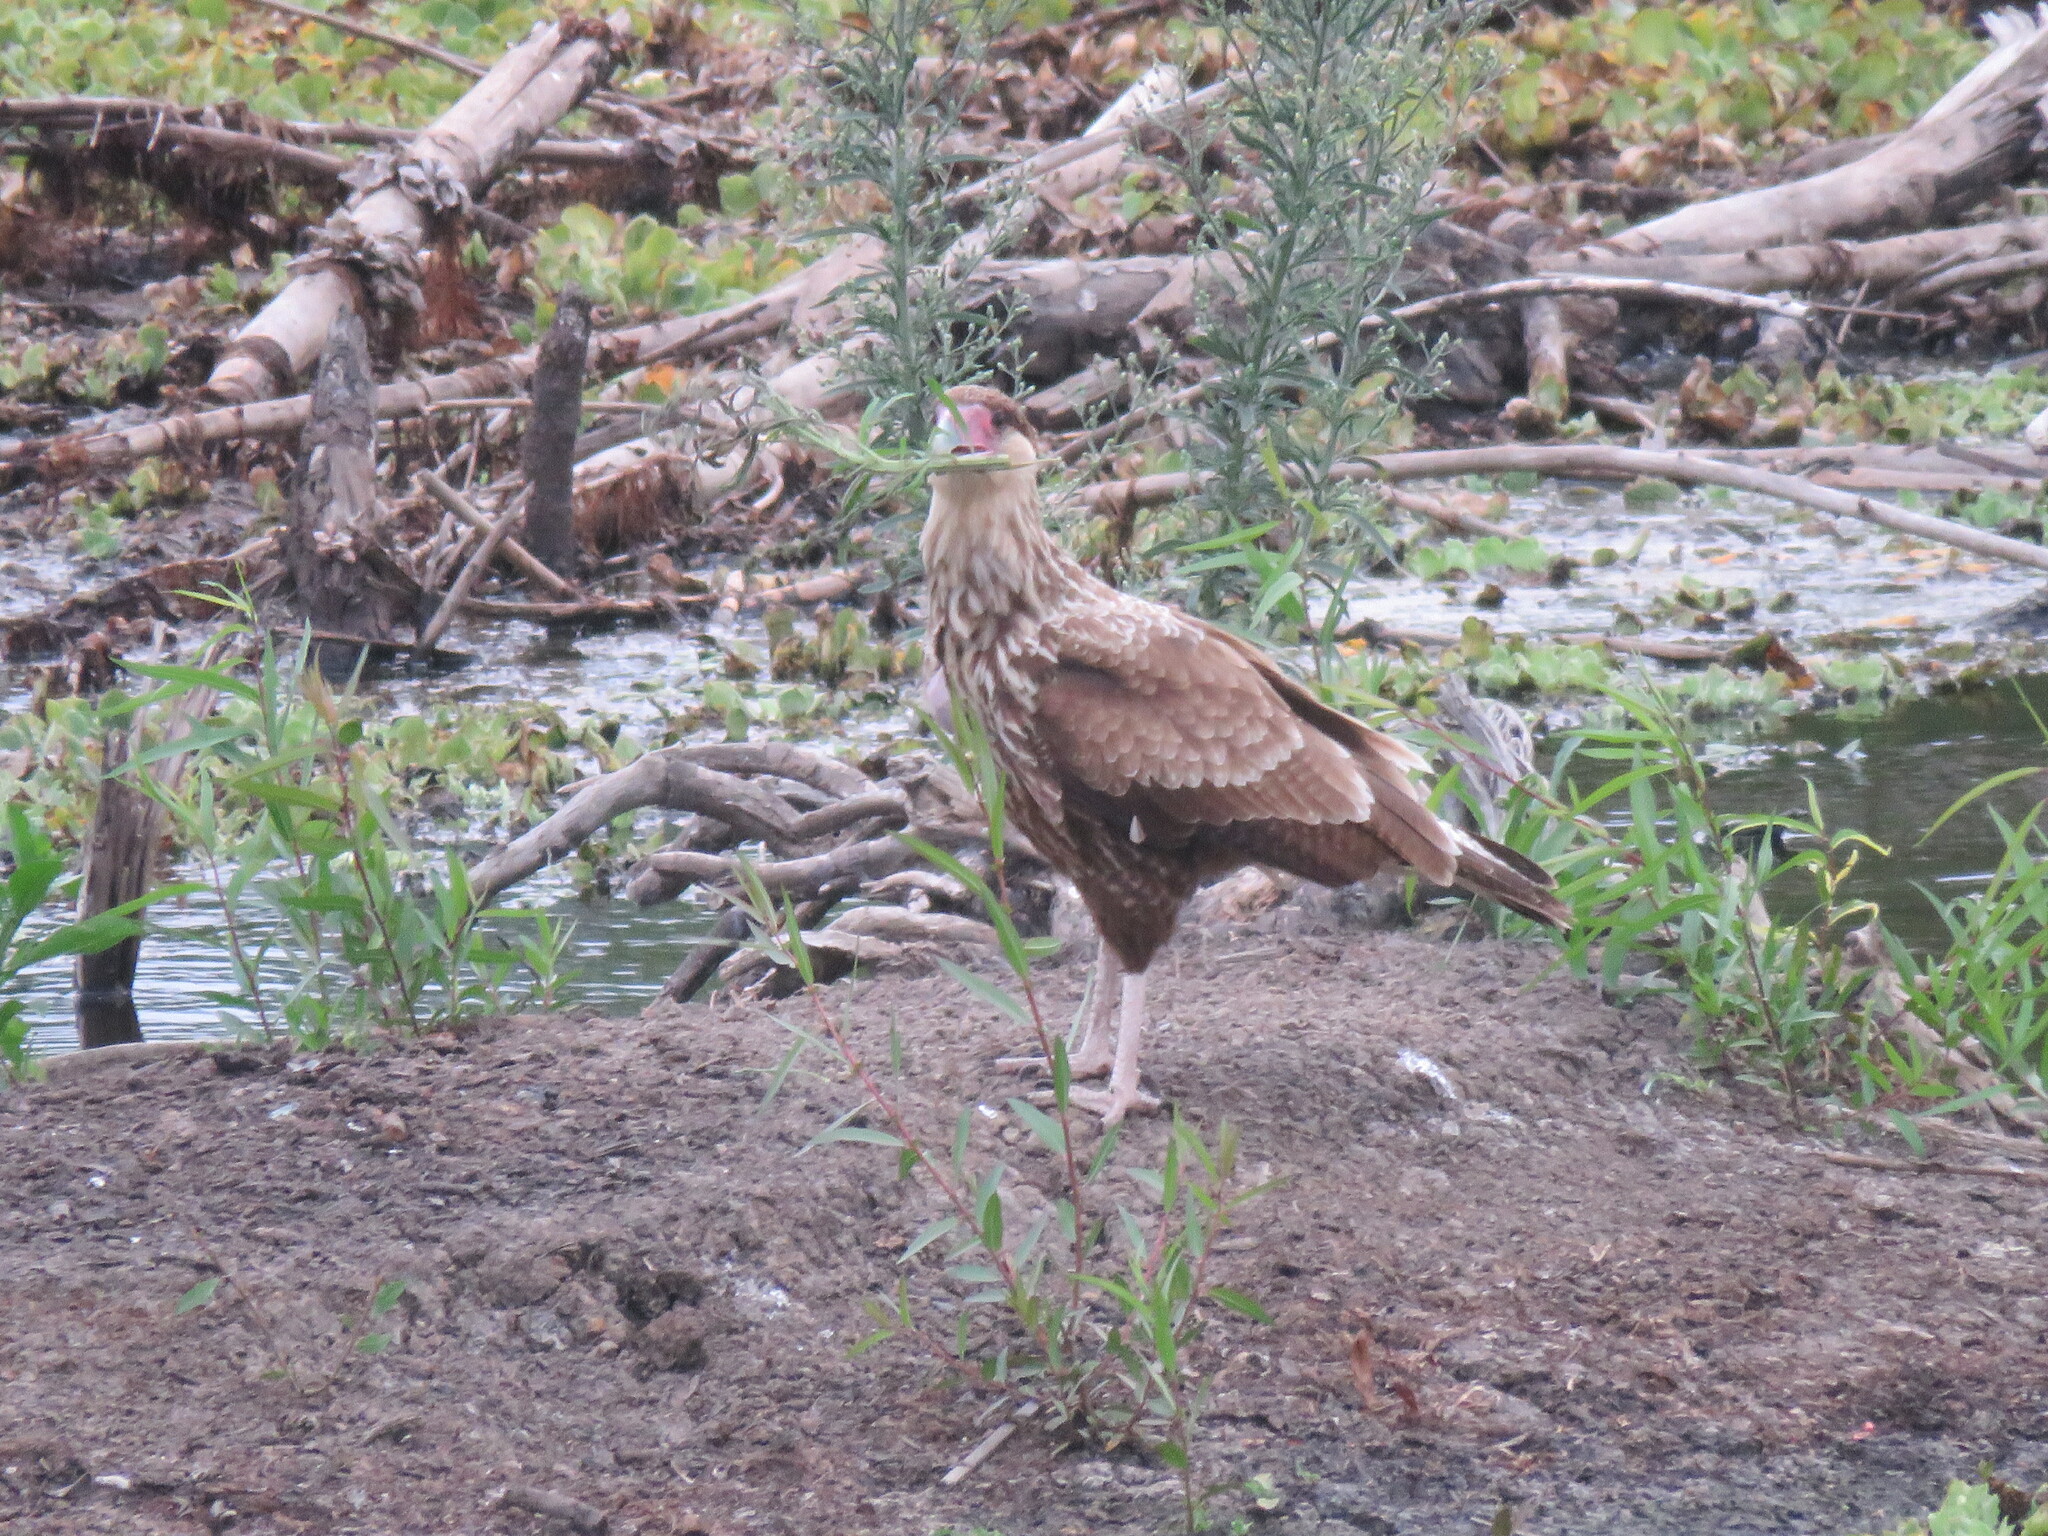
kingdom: Animalia
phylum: Chordata
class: Aves
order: Falconiformes
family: Falconidae
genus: Caracara
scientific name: Caracara plancus
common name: Southern caracara
